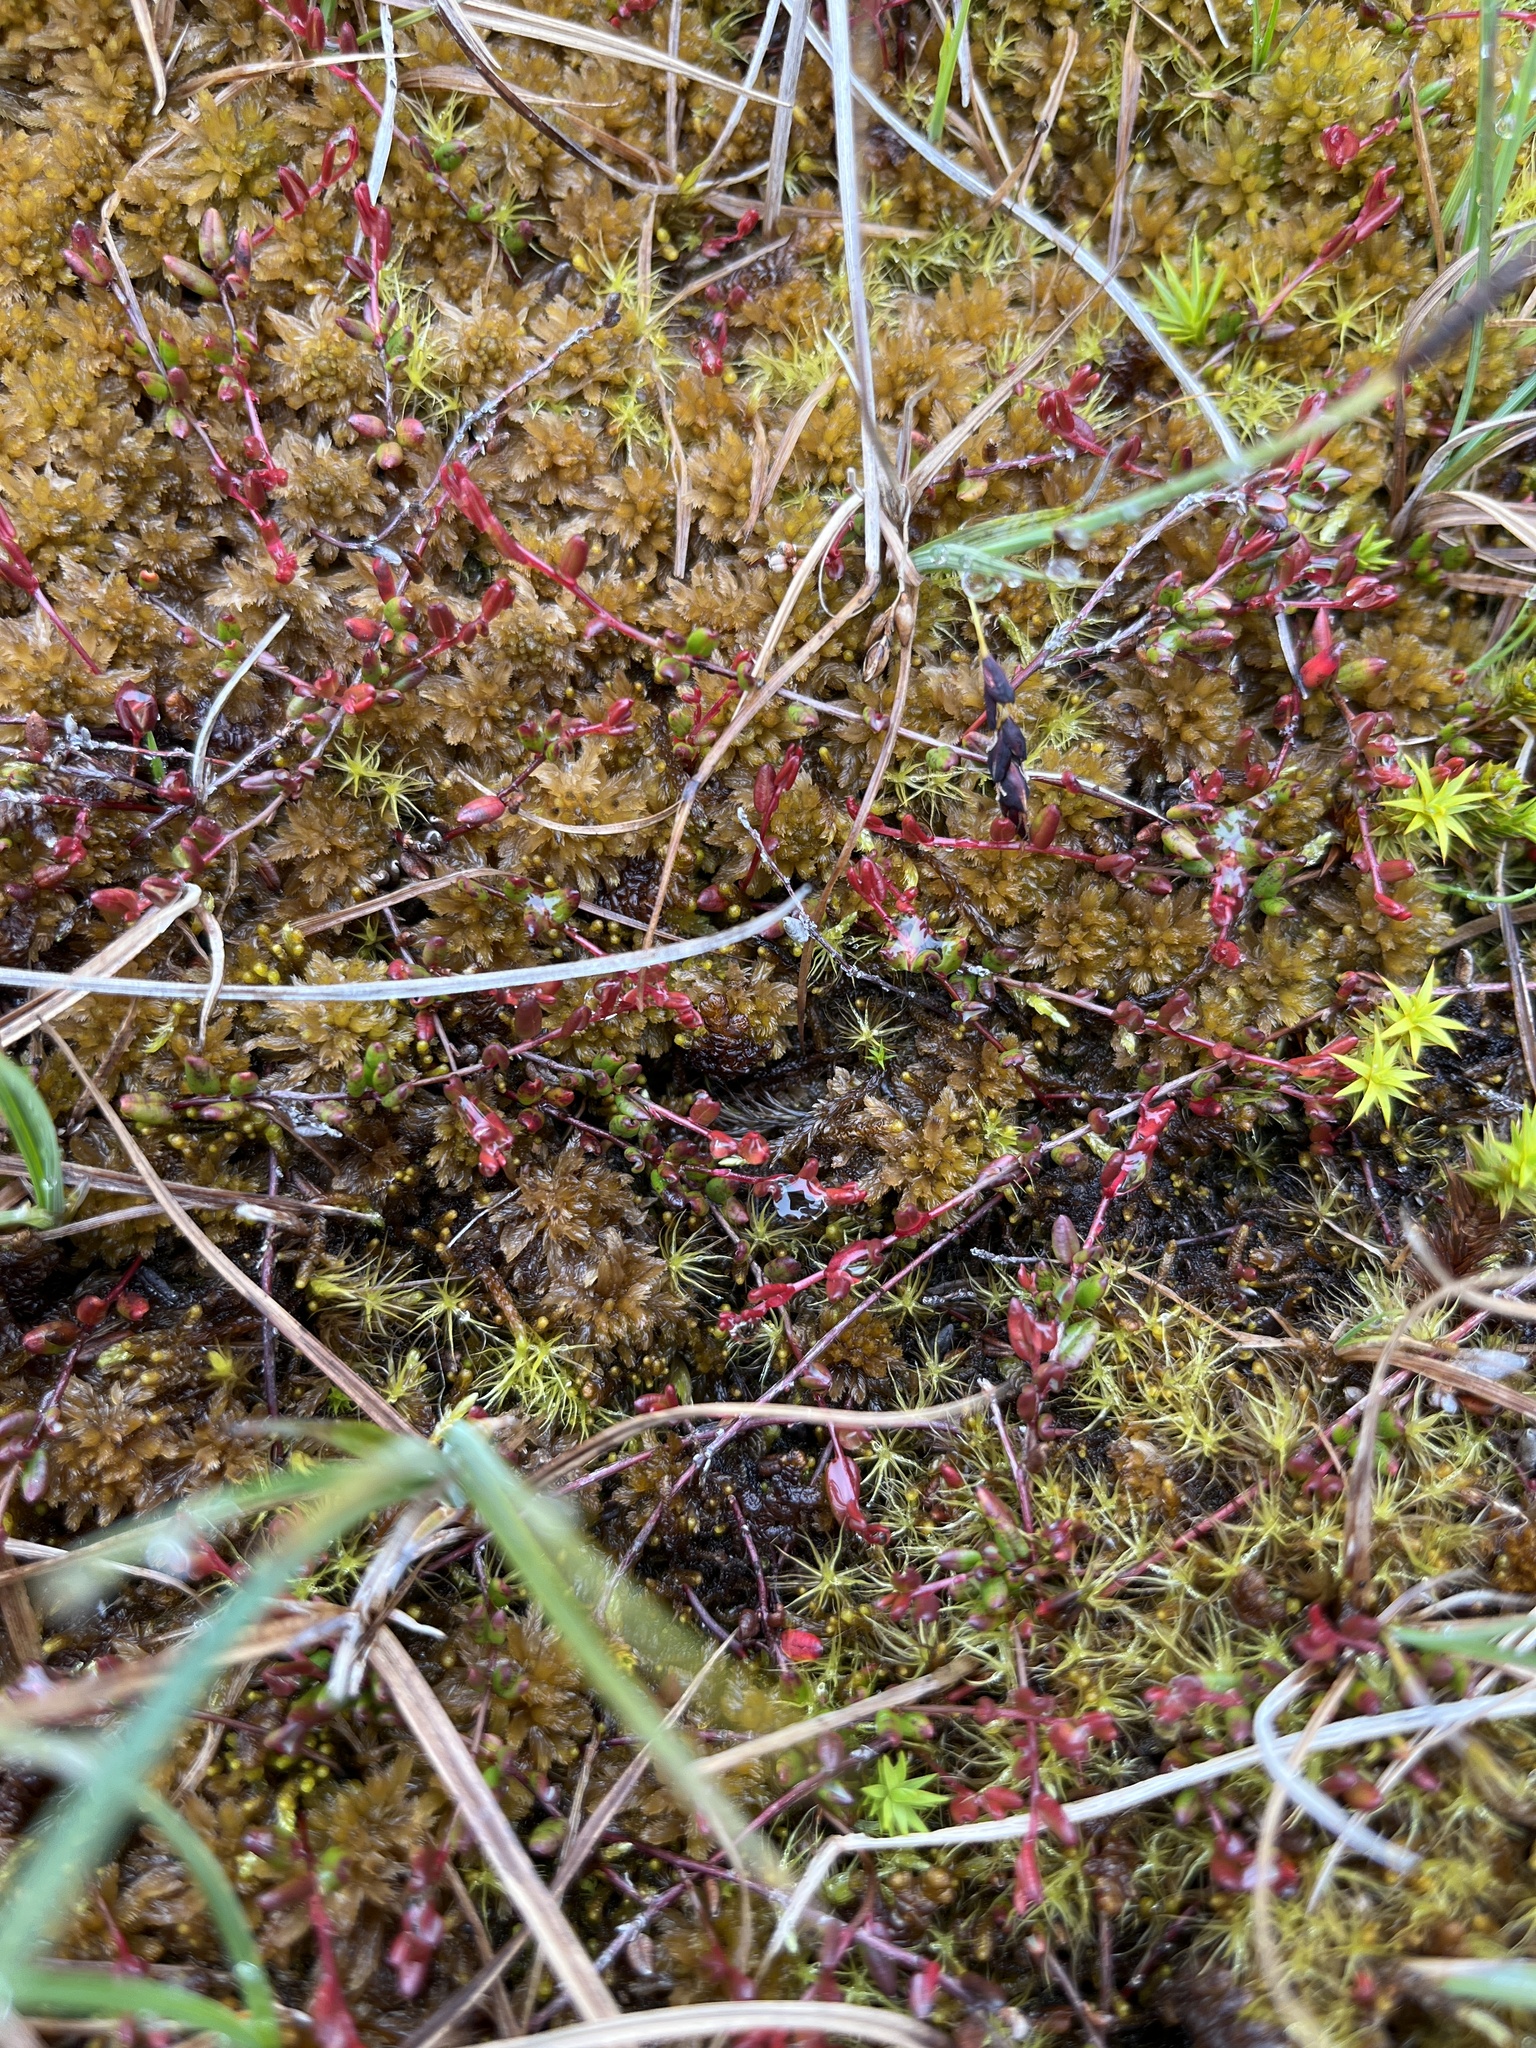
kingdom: Plantae
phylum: Tracheophyta
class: Magnoliopsida
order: Ericales
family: Ericaceae
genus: Vaccinium
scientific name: Vaccinium microcarpum
